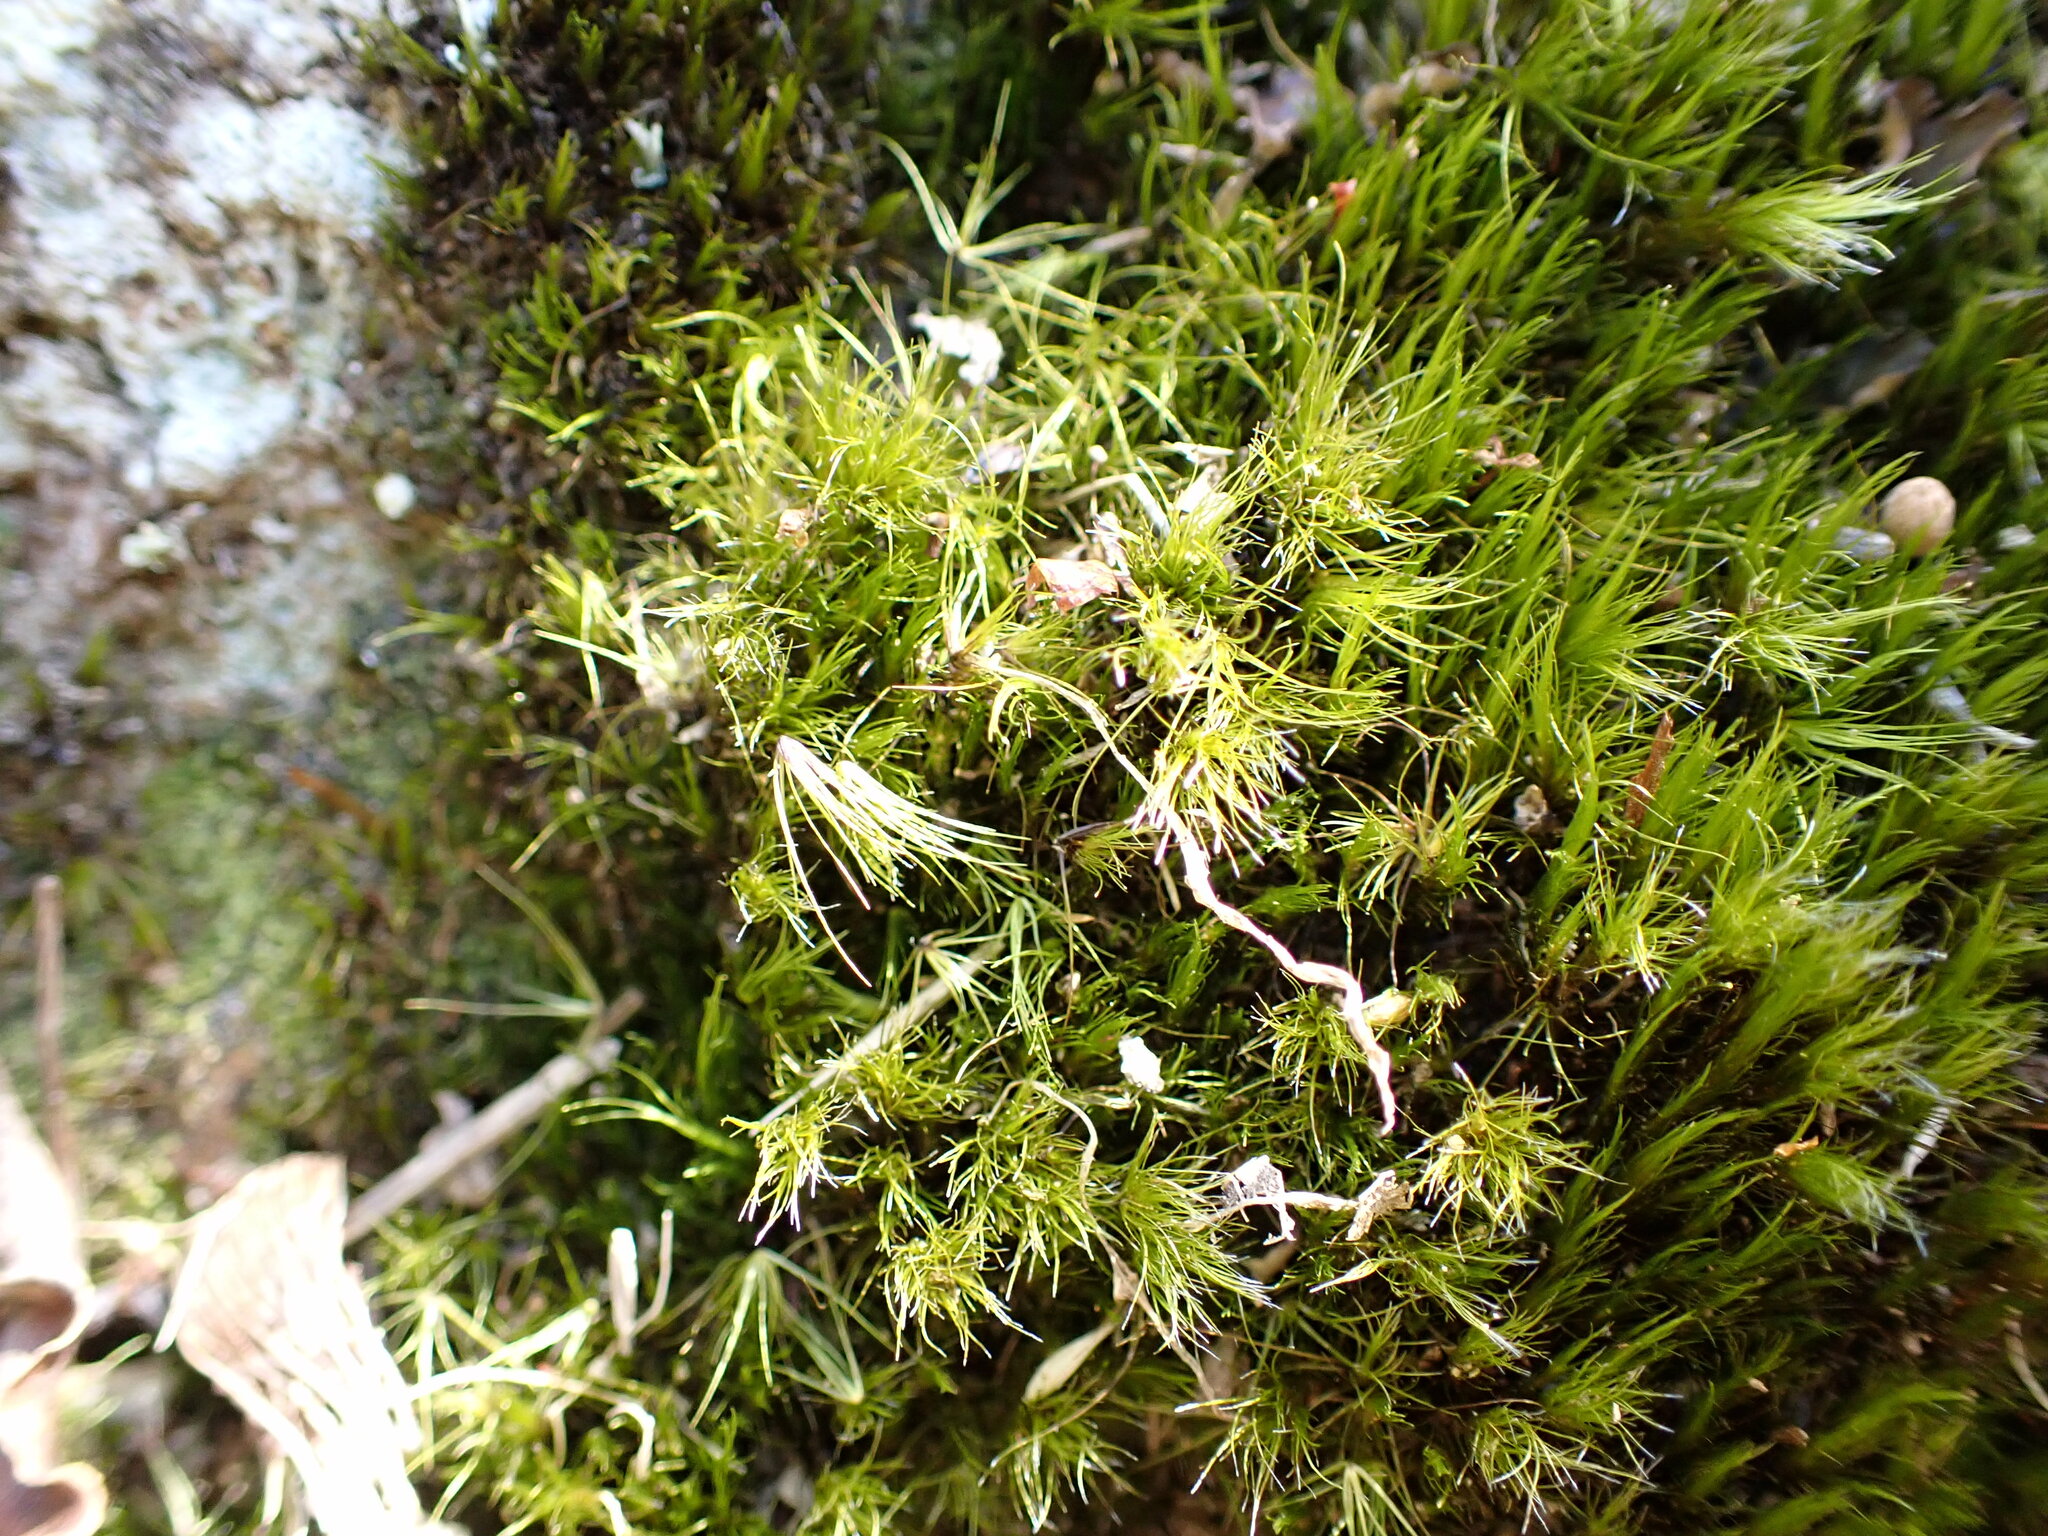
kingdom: Plantae
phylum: Bryophyta
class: Bryopsida
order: Dicranales
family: Leucobryaceae
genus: Campylopus
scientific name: Campylopus clavatus
